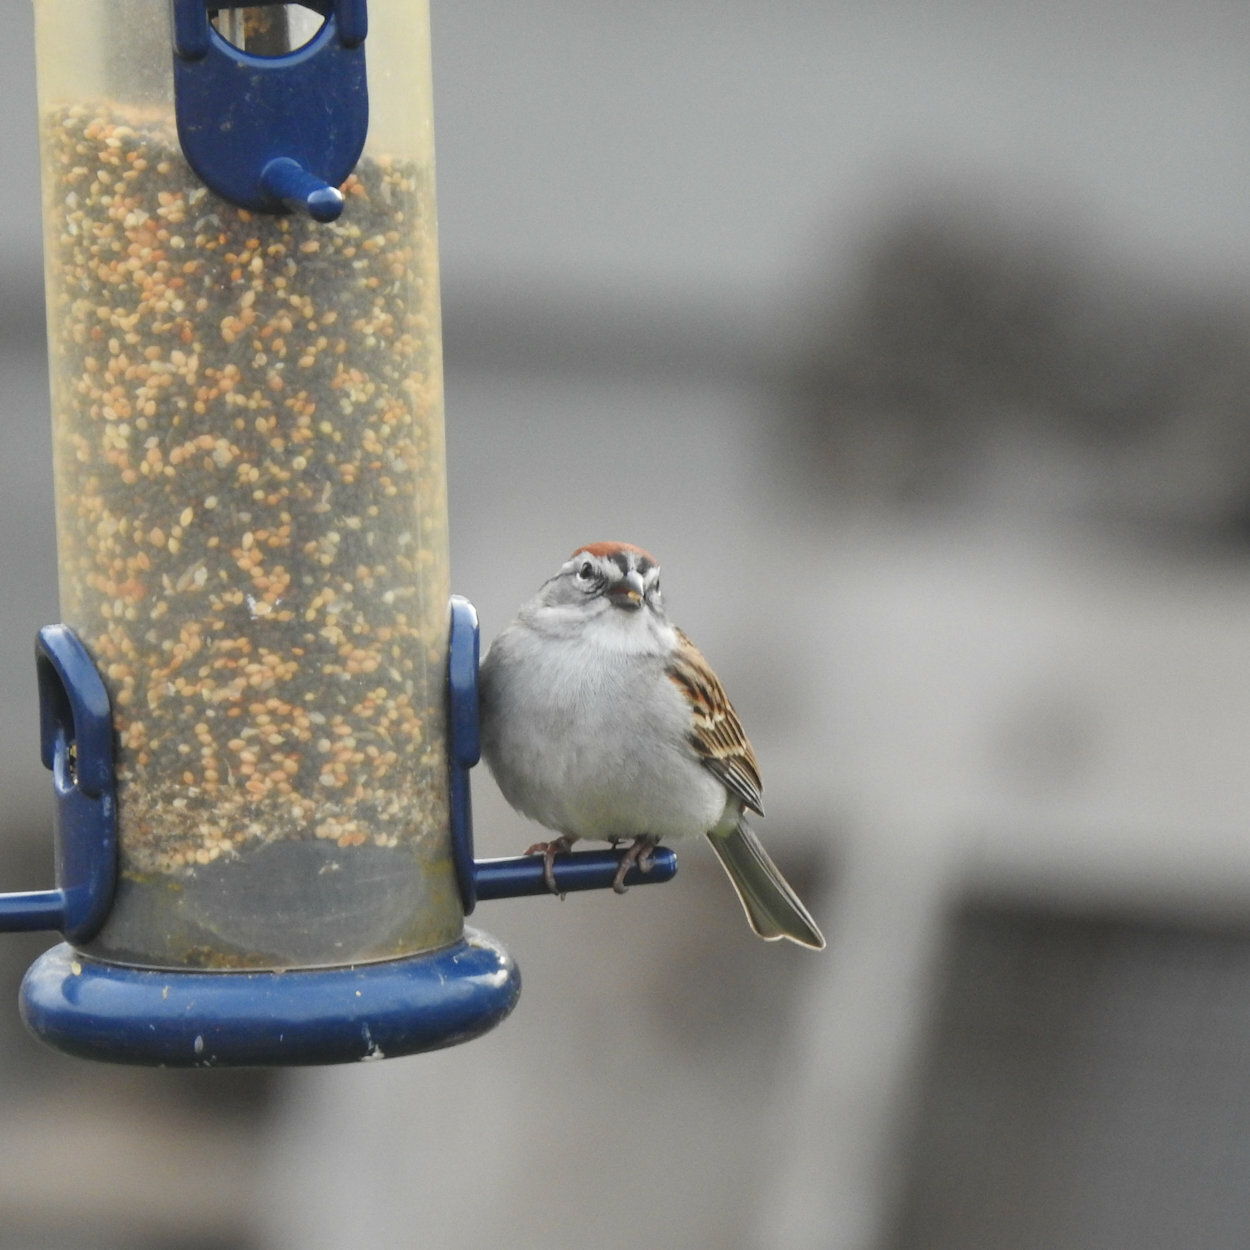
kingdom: Animalia
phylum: Chordata
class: Aves
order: Passeriformes
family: Passerellidae
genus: Spizella
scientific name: Spizella passerina
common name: Chipping sparrow
